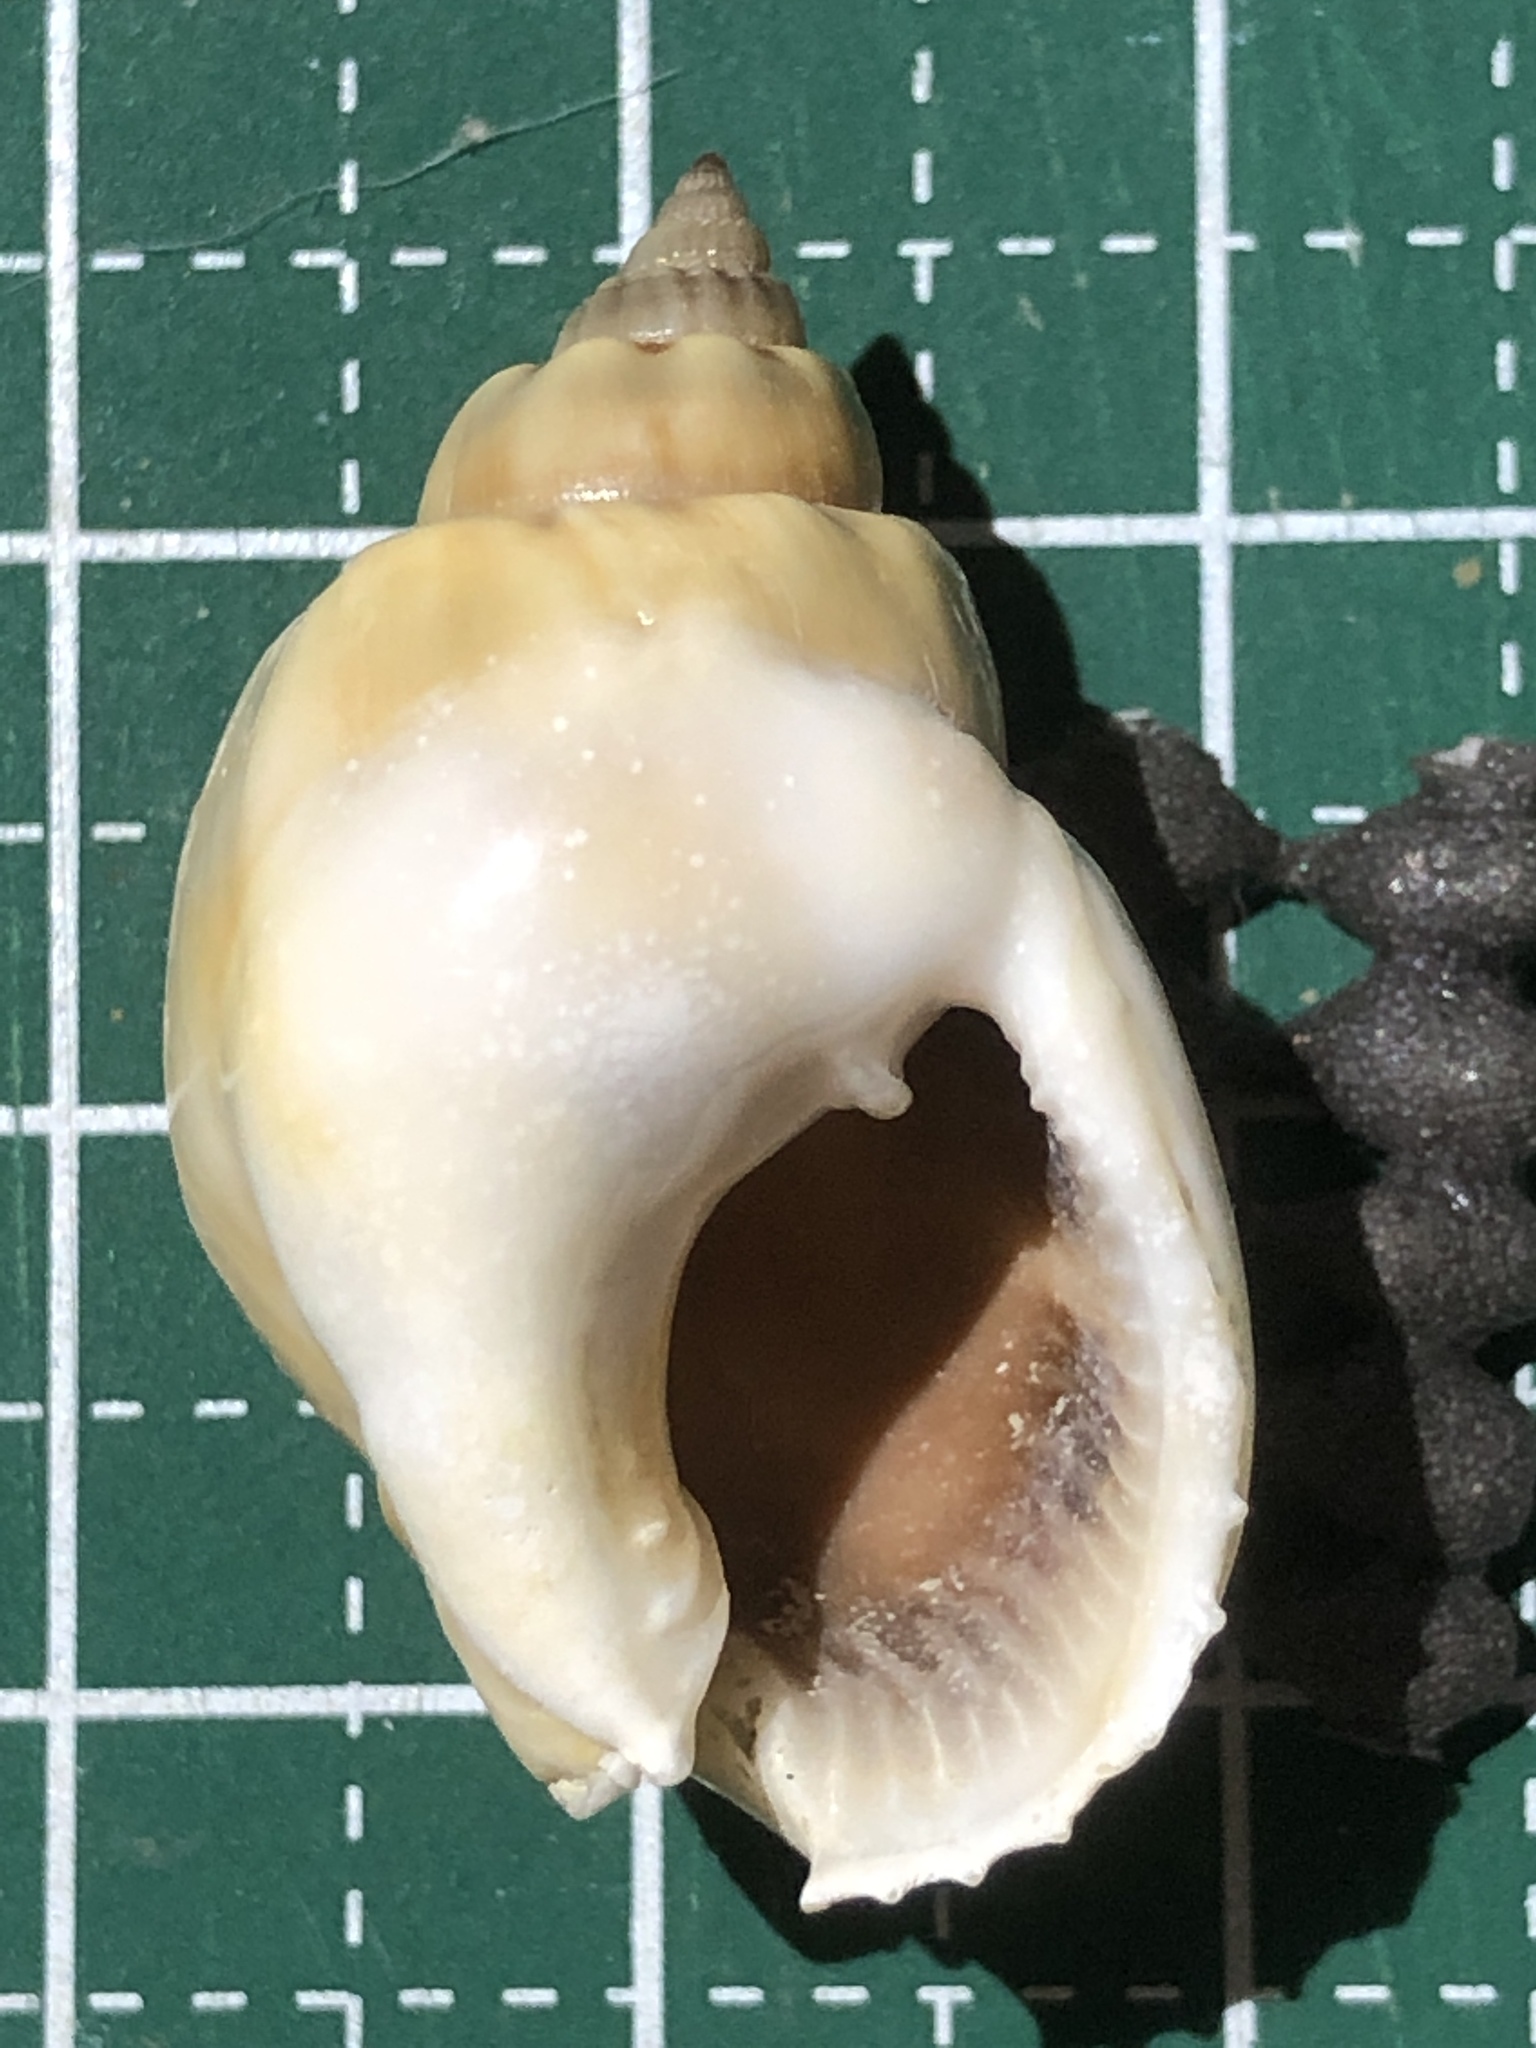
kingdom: Animalia
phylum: Mollusca
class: Gastropoda
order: Neogastropoda
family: Nassariidae
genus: Nassarius
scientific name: Nassarius coronatus
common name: Crowned nassa
